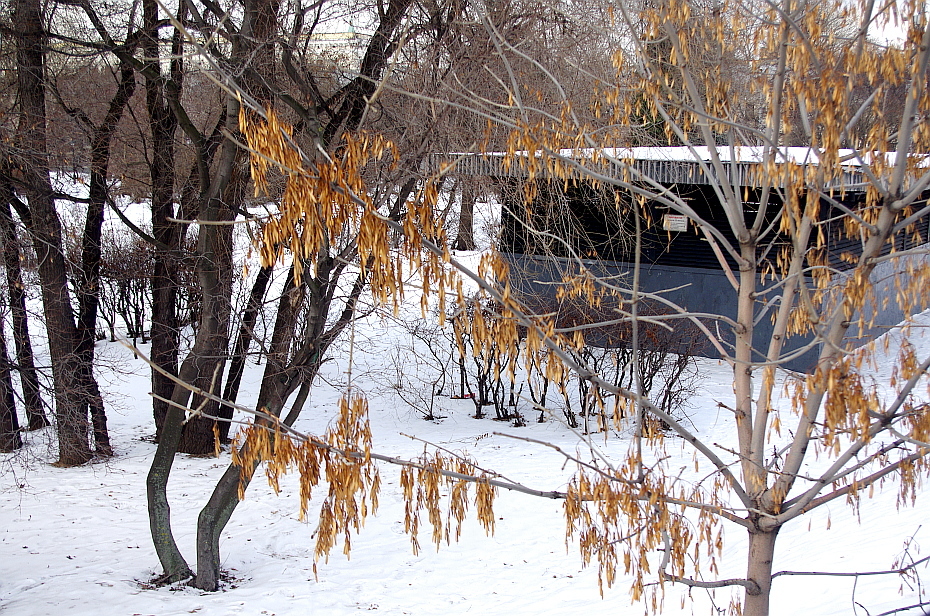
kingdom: Plantae
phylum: Tracheophyta
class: Magnoliopsida
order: Lamiales
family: Oleaceae
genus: Fraxinus
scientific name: Fraxinus pennsylvanica
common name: Green ash
